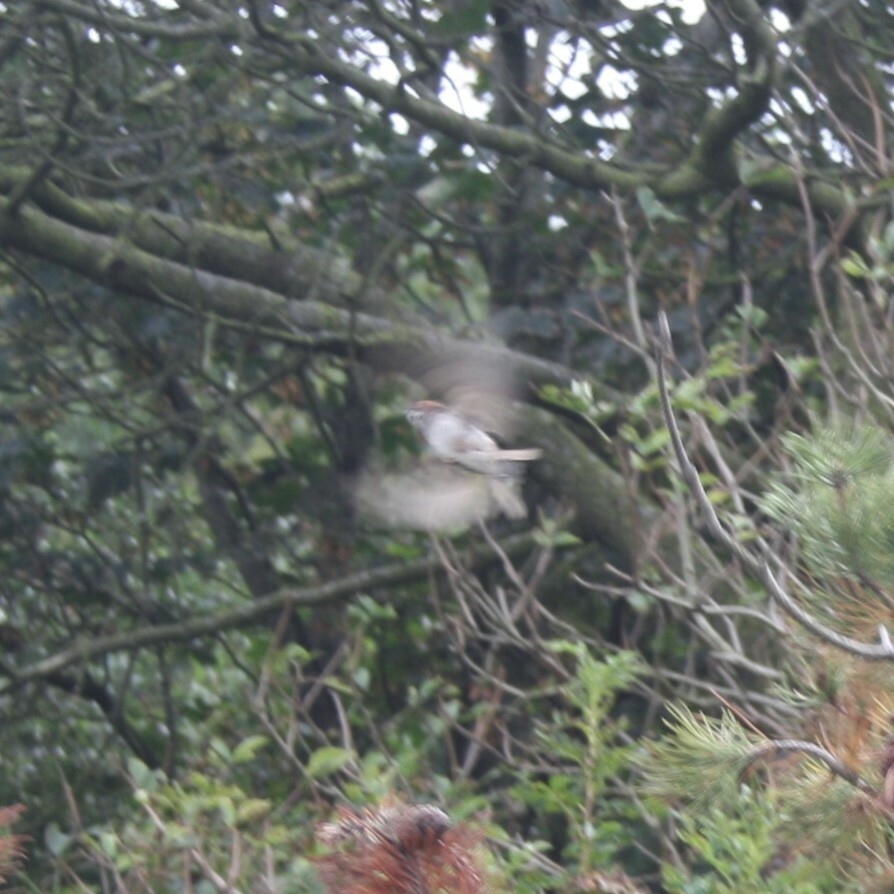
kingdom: Animalia
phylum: Chordata
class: Aves
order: Passeriformes
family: Passeridae
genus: Passer
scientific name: Passer montanus
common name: Eurasian tree sparrow
